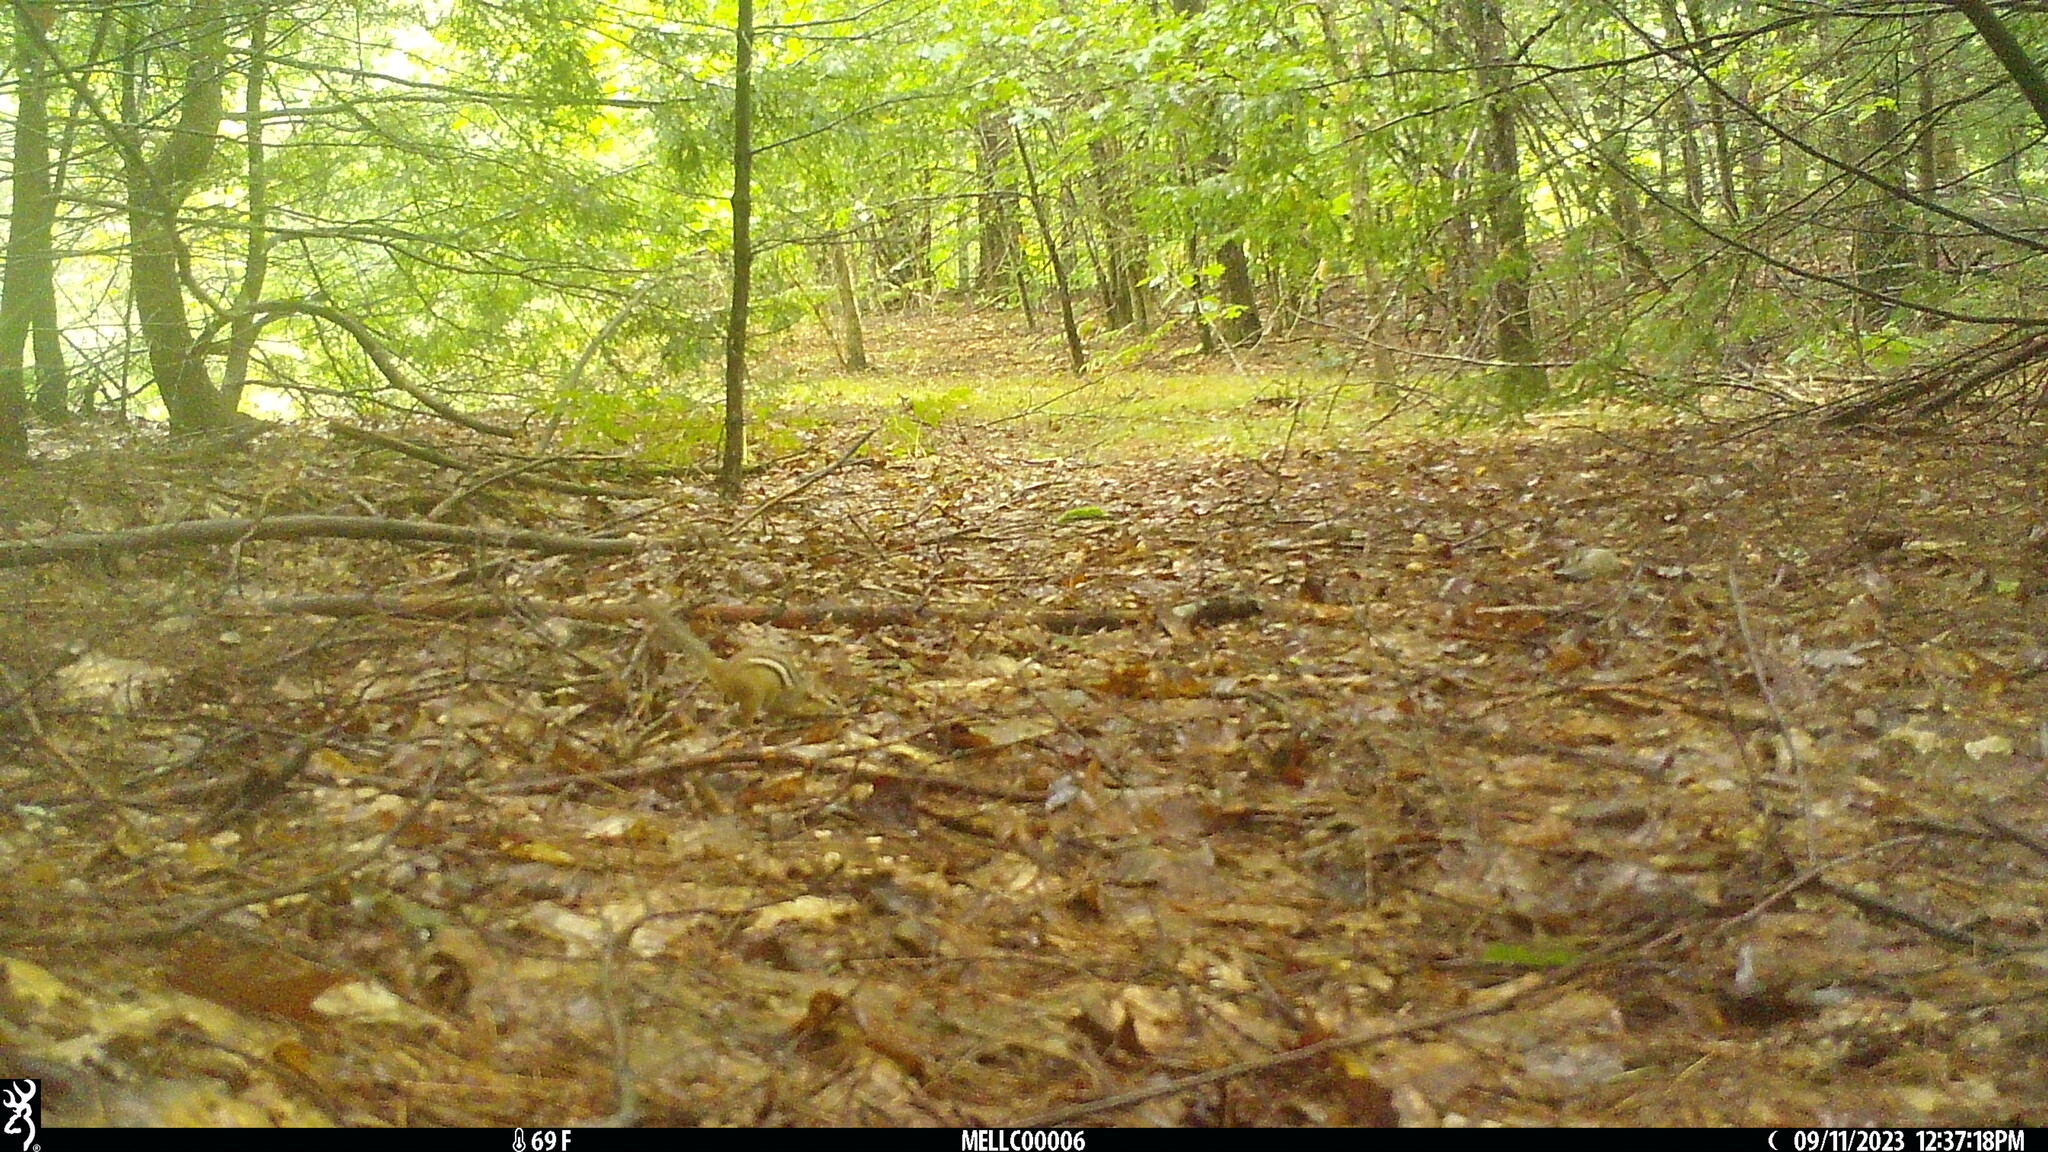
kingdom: Animalia
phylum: Chordata
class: Mammalia
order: Rodentia
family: Sciuridae
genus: Tamias
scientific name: Tamias striatus
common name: Eastern chipmunk
